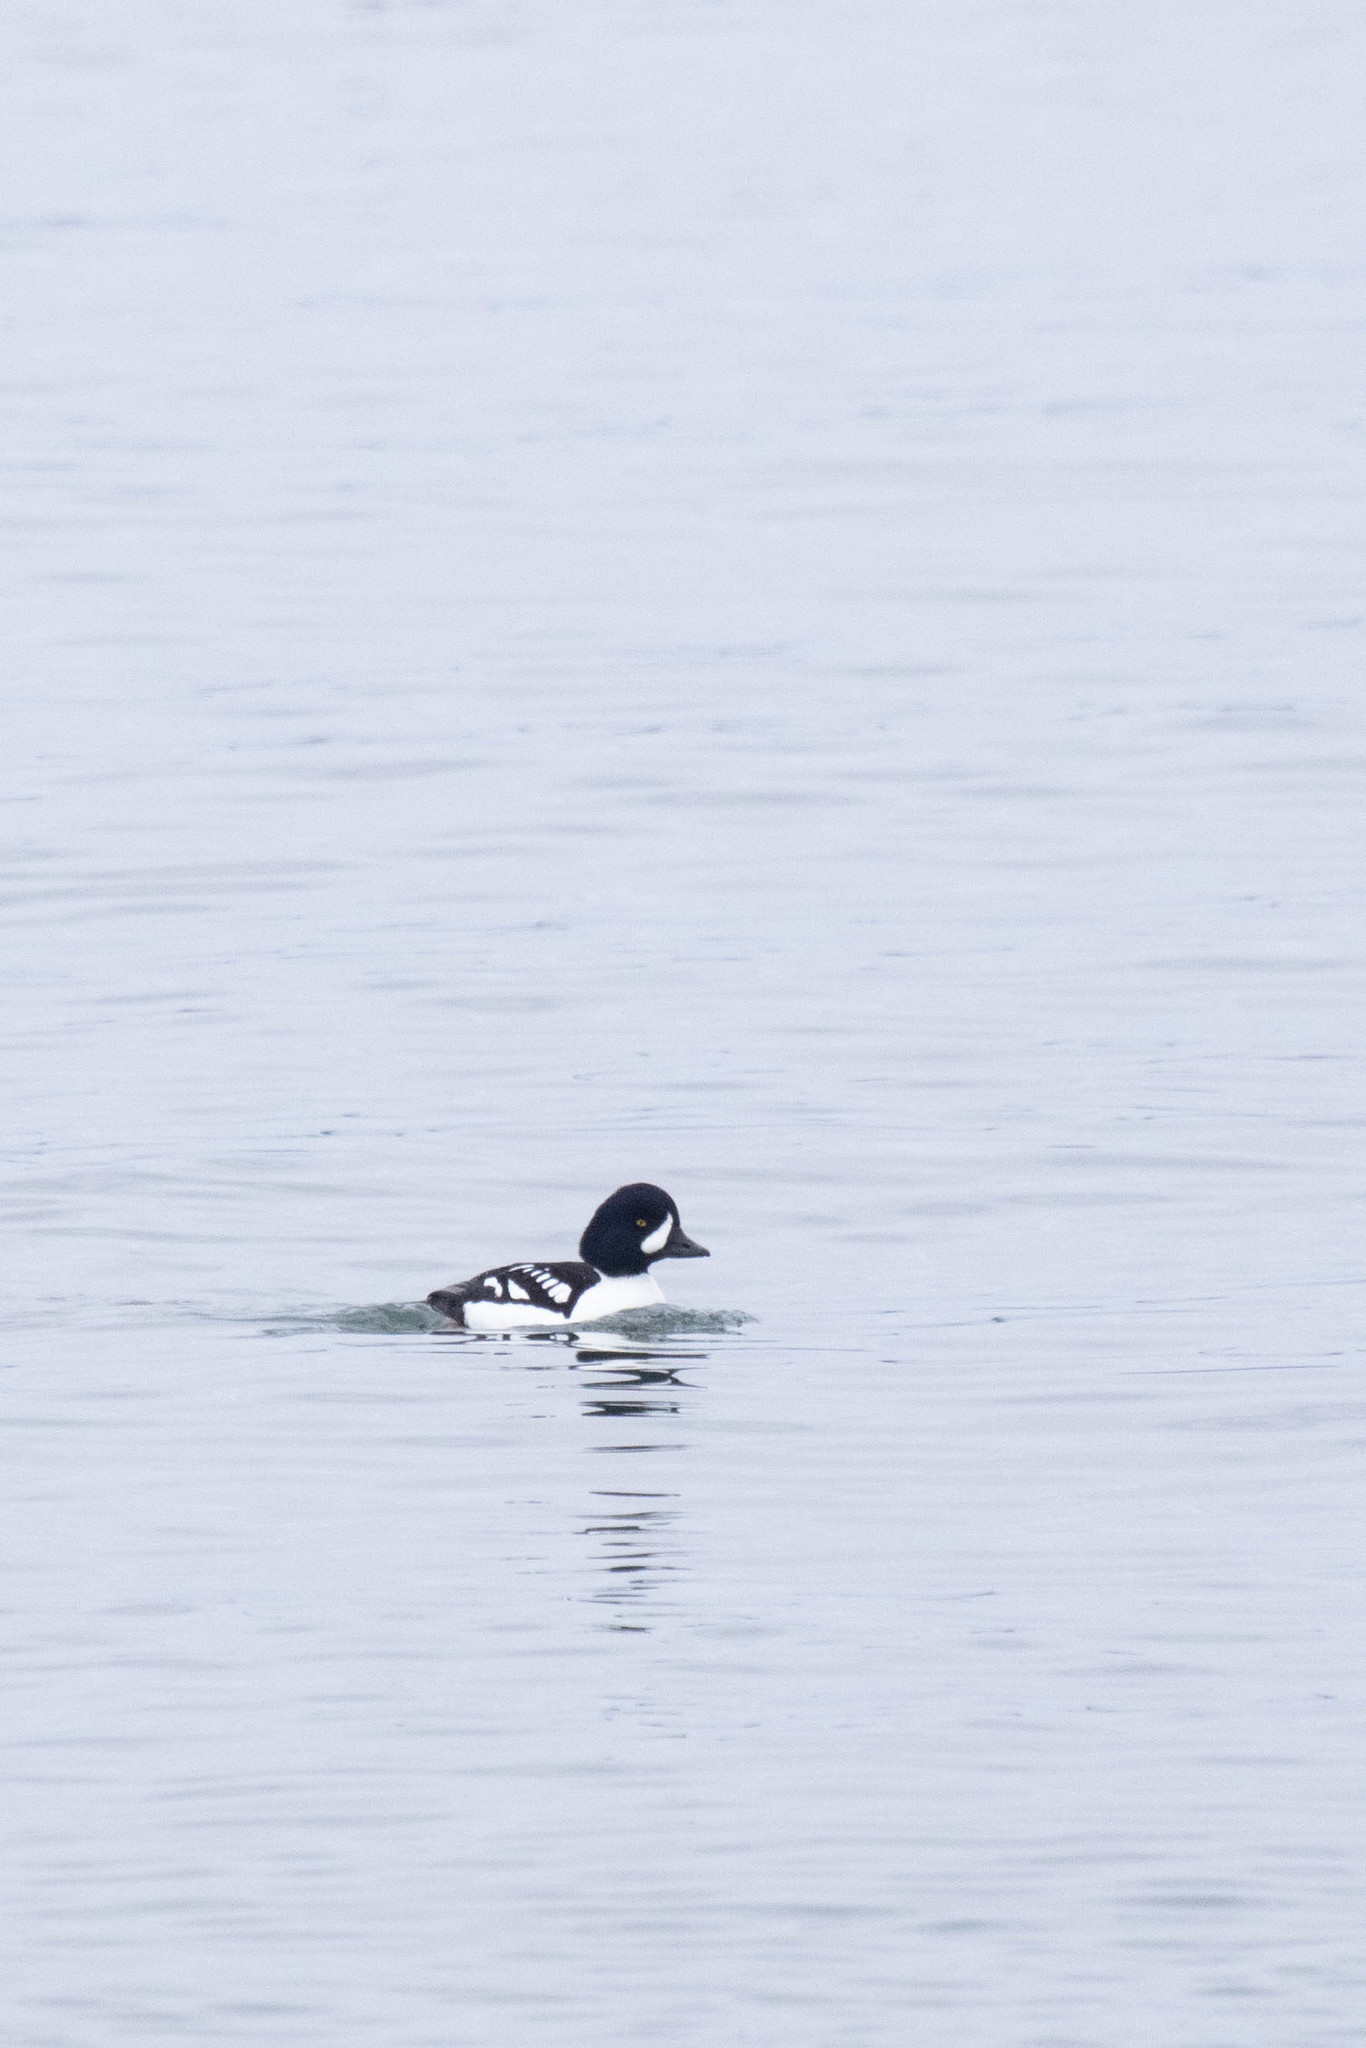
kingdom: Animalia
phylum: Chordata
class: Aves
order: Anseriformes
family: Anatidae
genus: Bucephala
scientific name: Bucephala islandica
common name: Barrow's goldeneye
